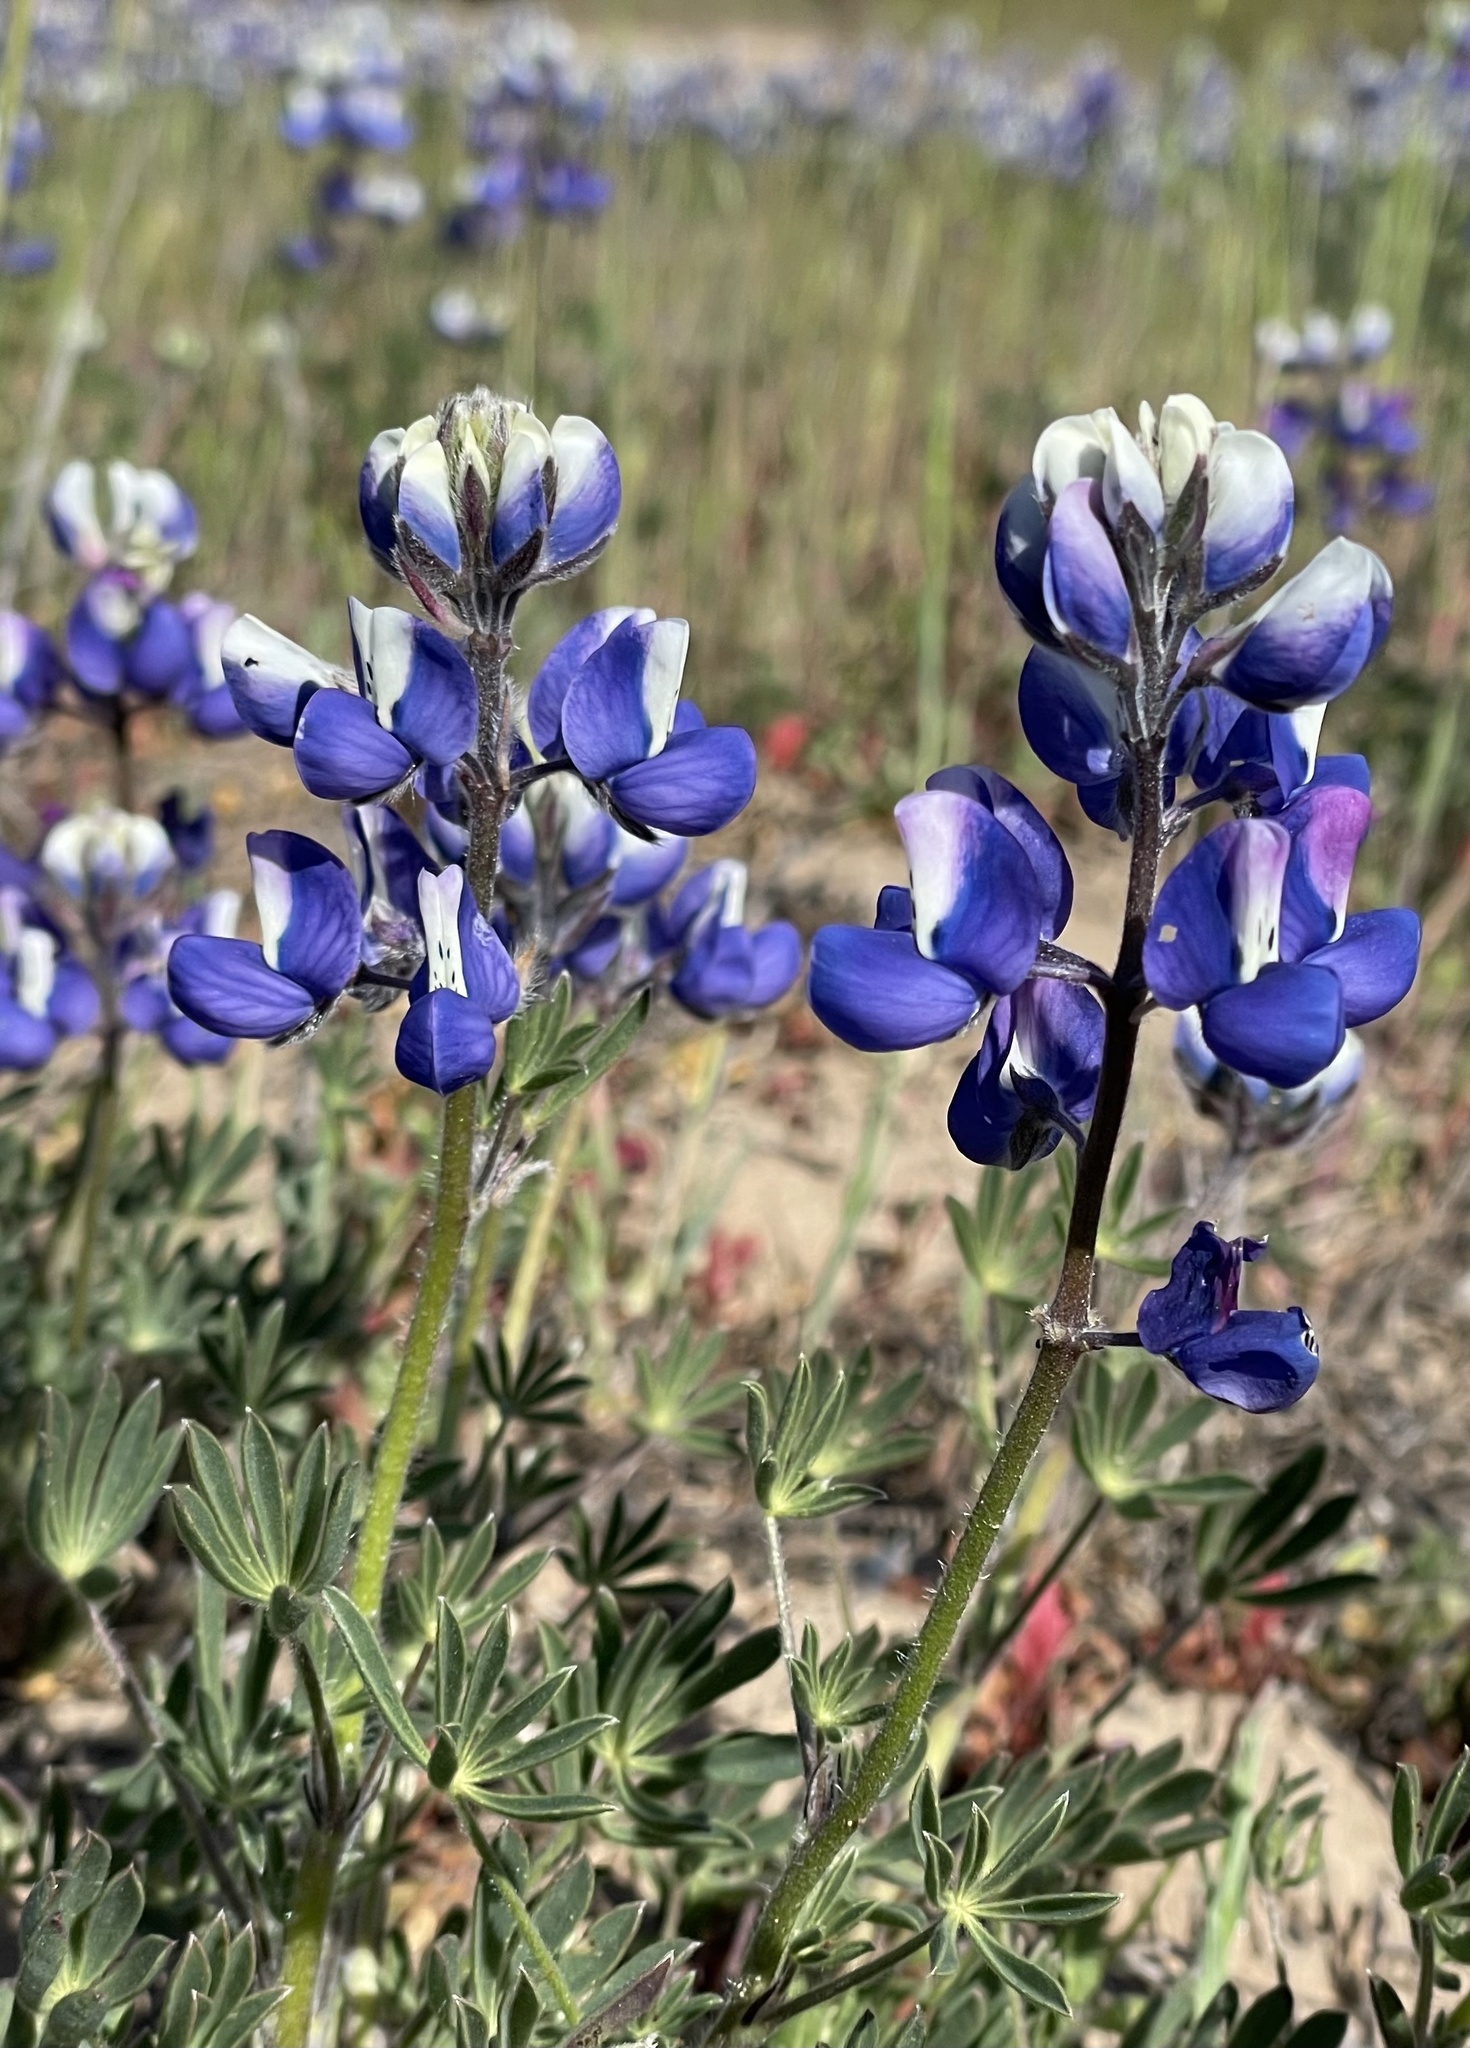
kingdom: Plantae
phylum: Tracheophyta
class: Magnoliopsida
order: Fabales
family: Fabaceae
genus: Lupinus
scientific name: Lupinus nanus
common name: Orean blue lupin
